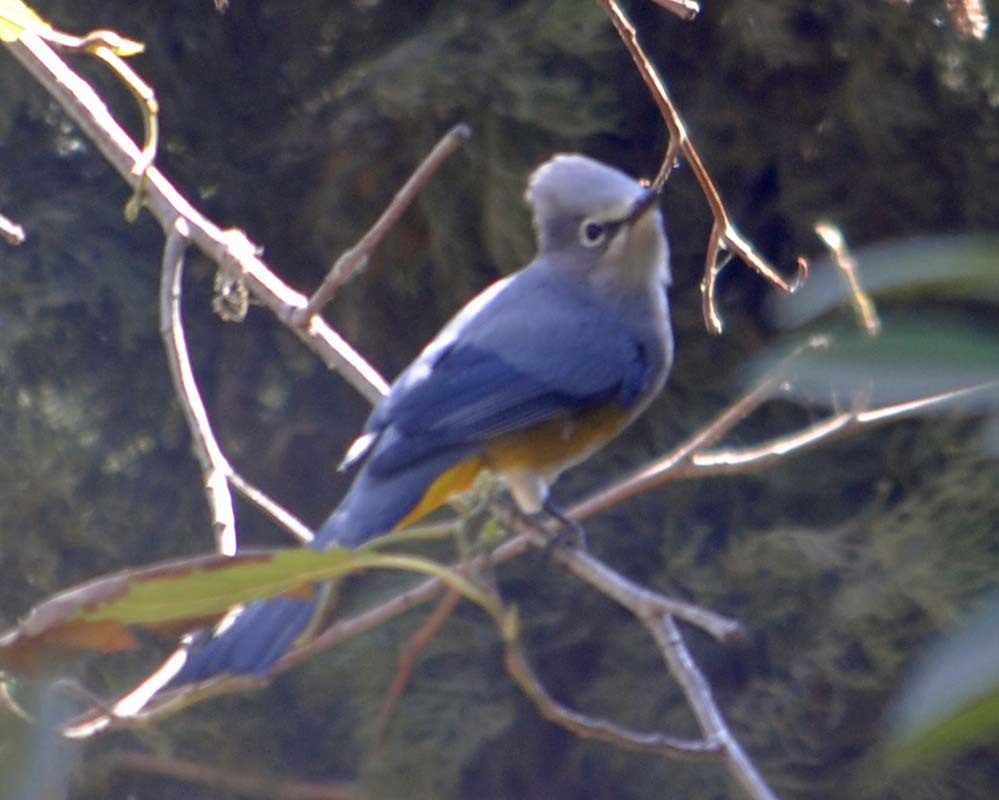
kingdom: Animalia
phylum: Chordata
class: Aves
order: Passeriformes
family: Ptilogonatidae
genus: Ptilogonys
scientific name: Ptilogonys cinereus
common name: Gray silky-flycatcher
